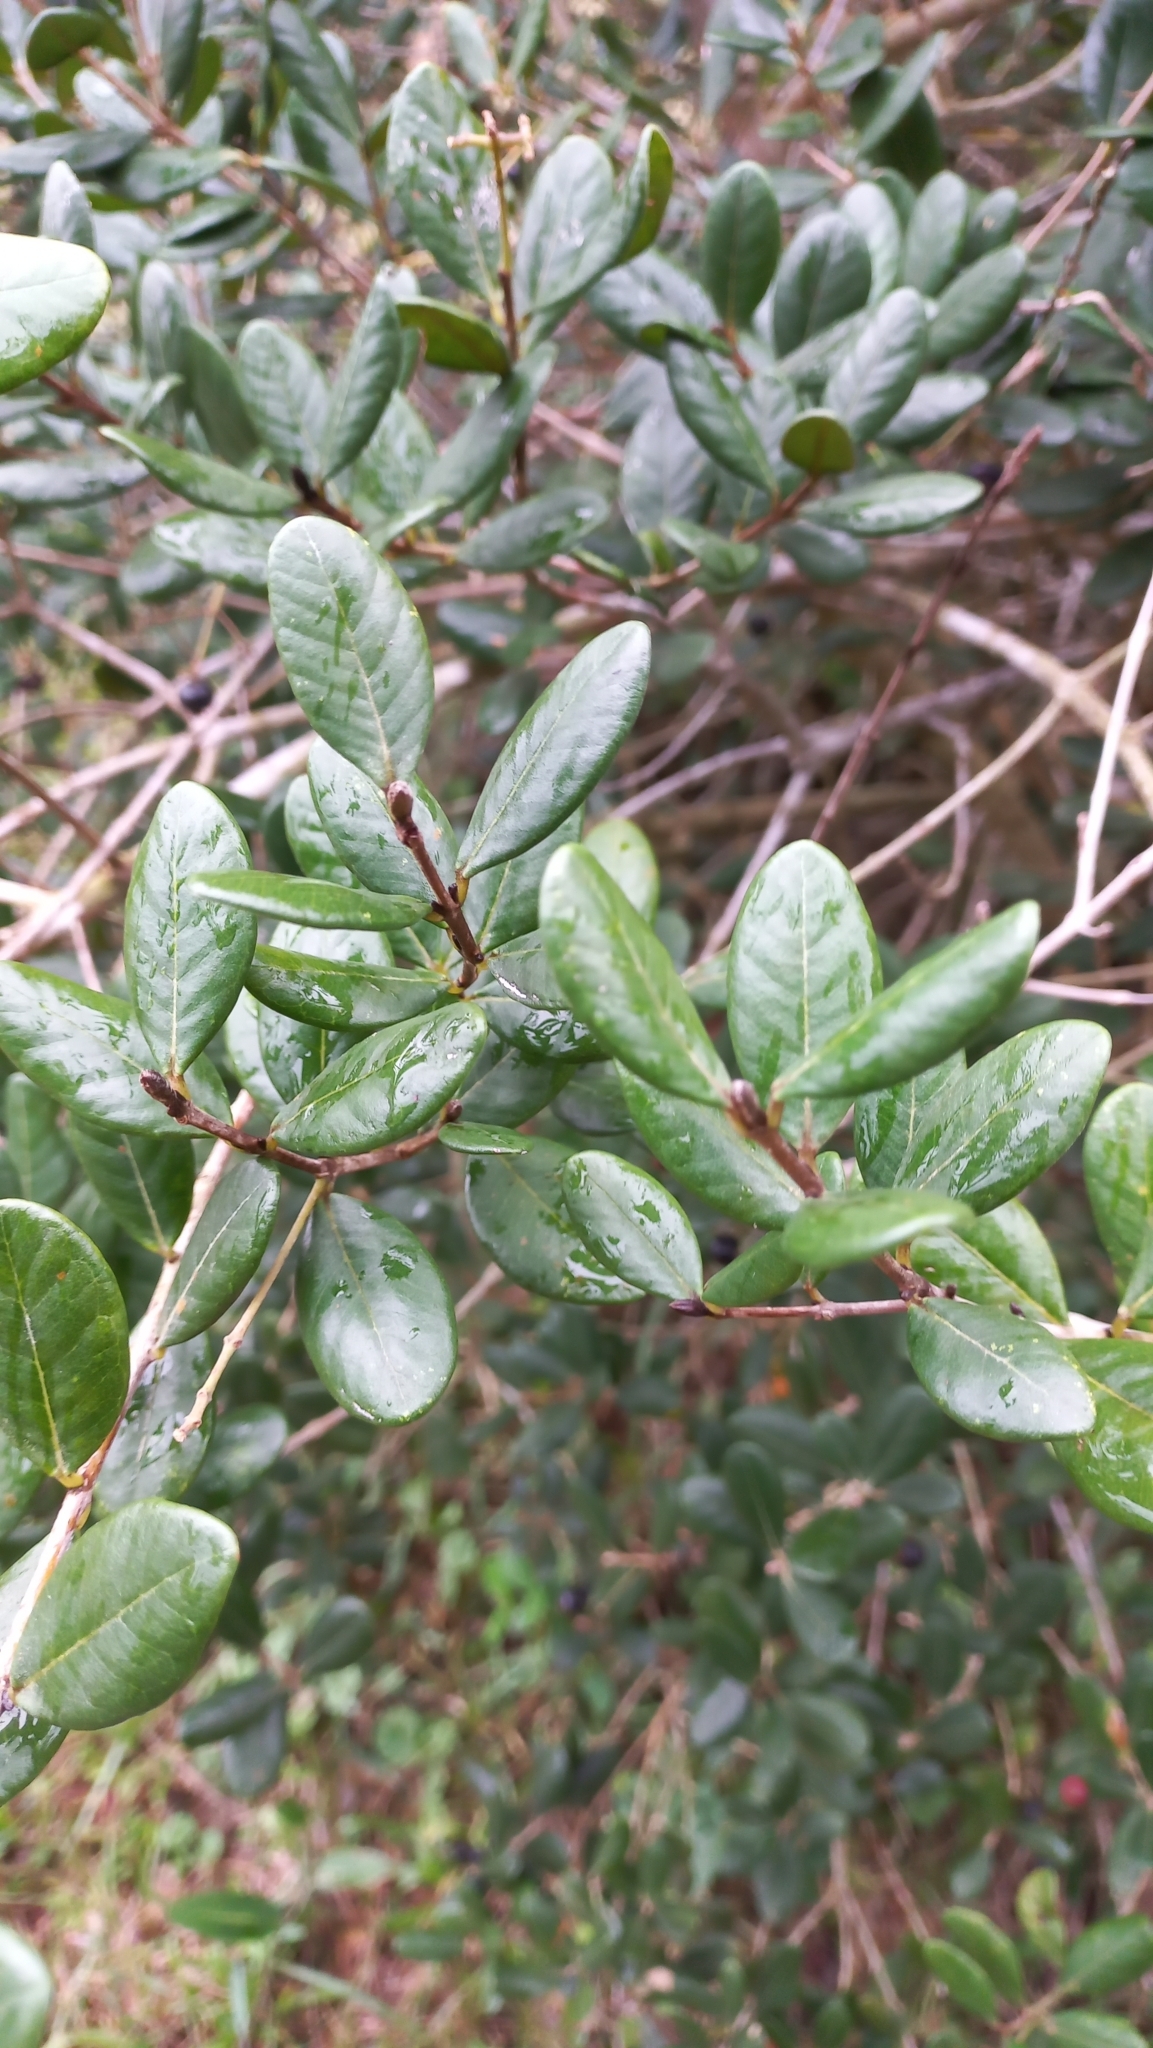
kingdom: Plantae
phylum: Tracheophyta
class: Magnoliopsida
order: Myrtales
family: Myrtaceae
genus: Myrcia
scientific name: Myrcia palustris
